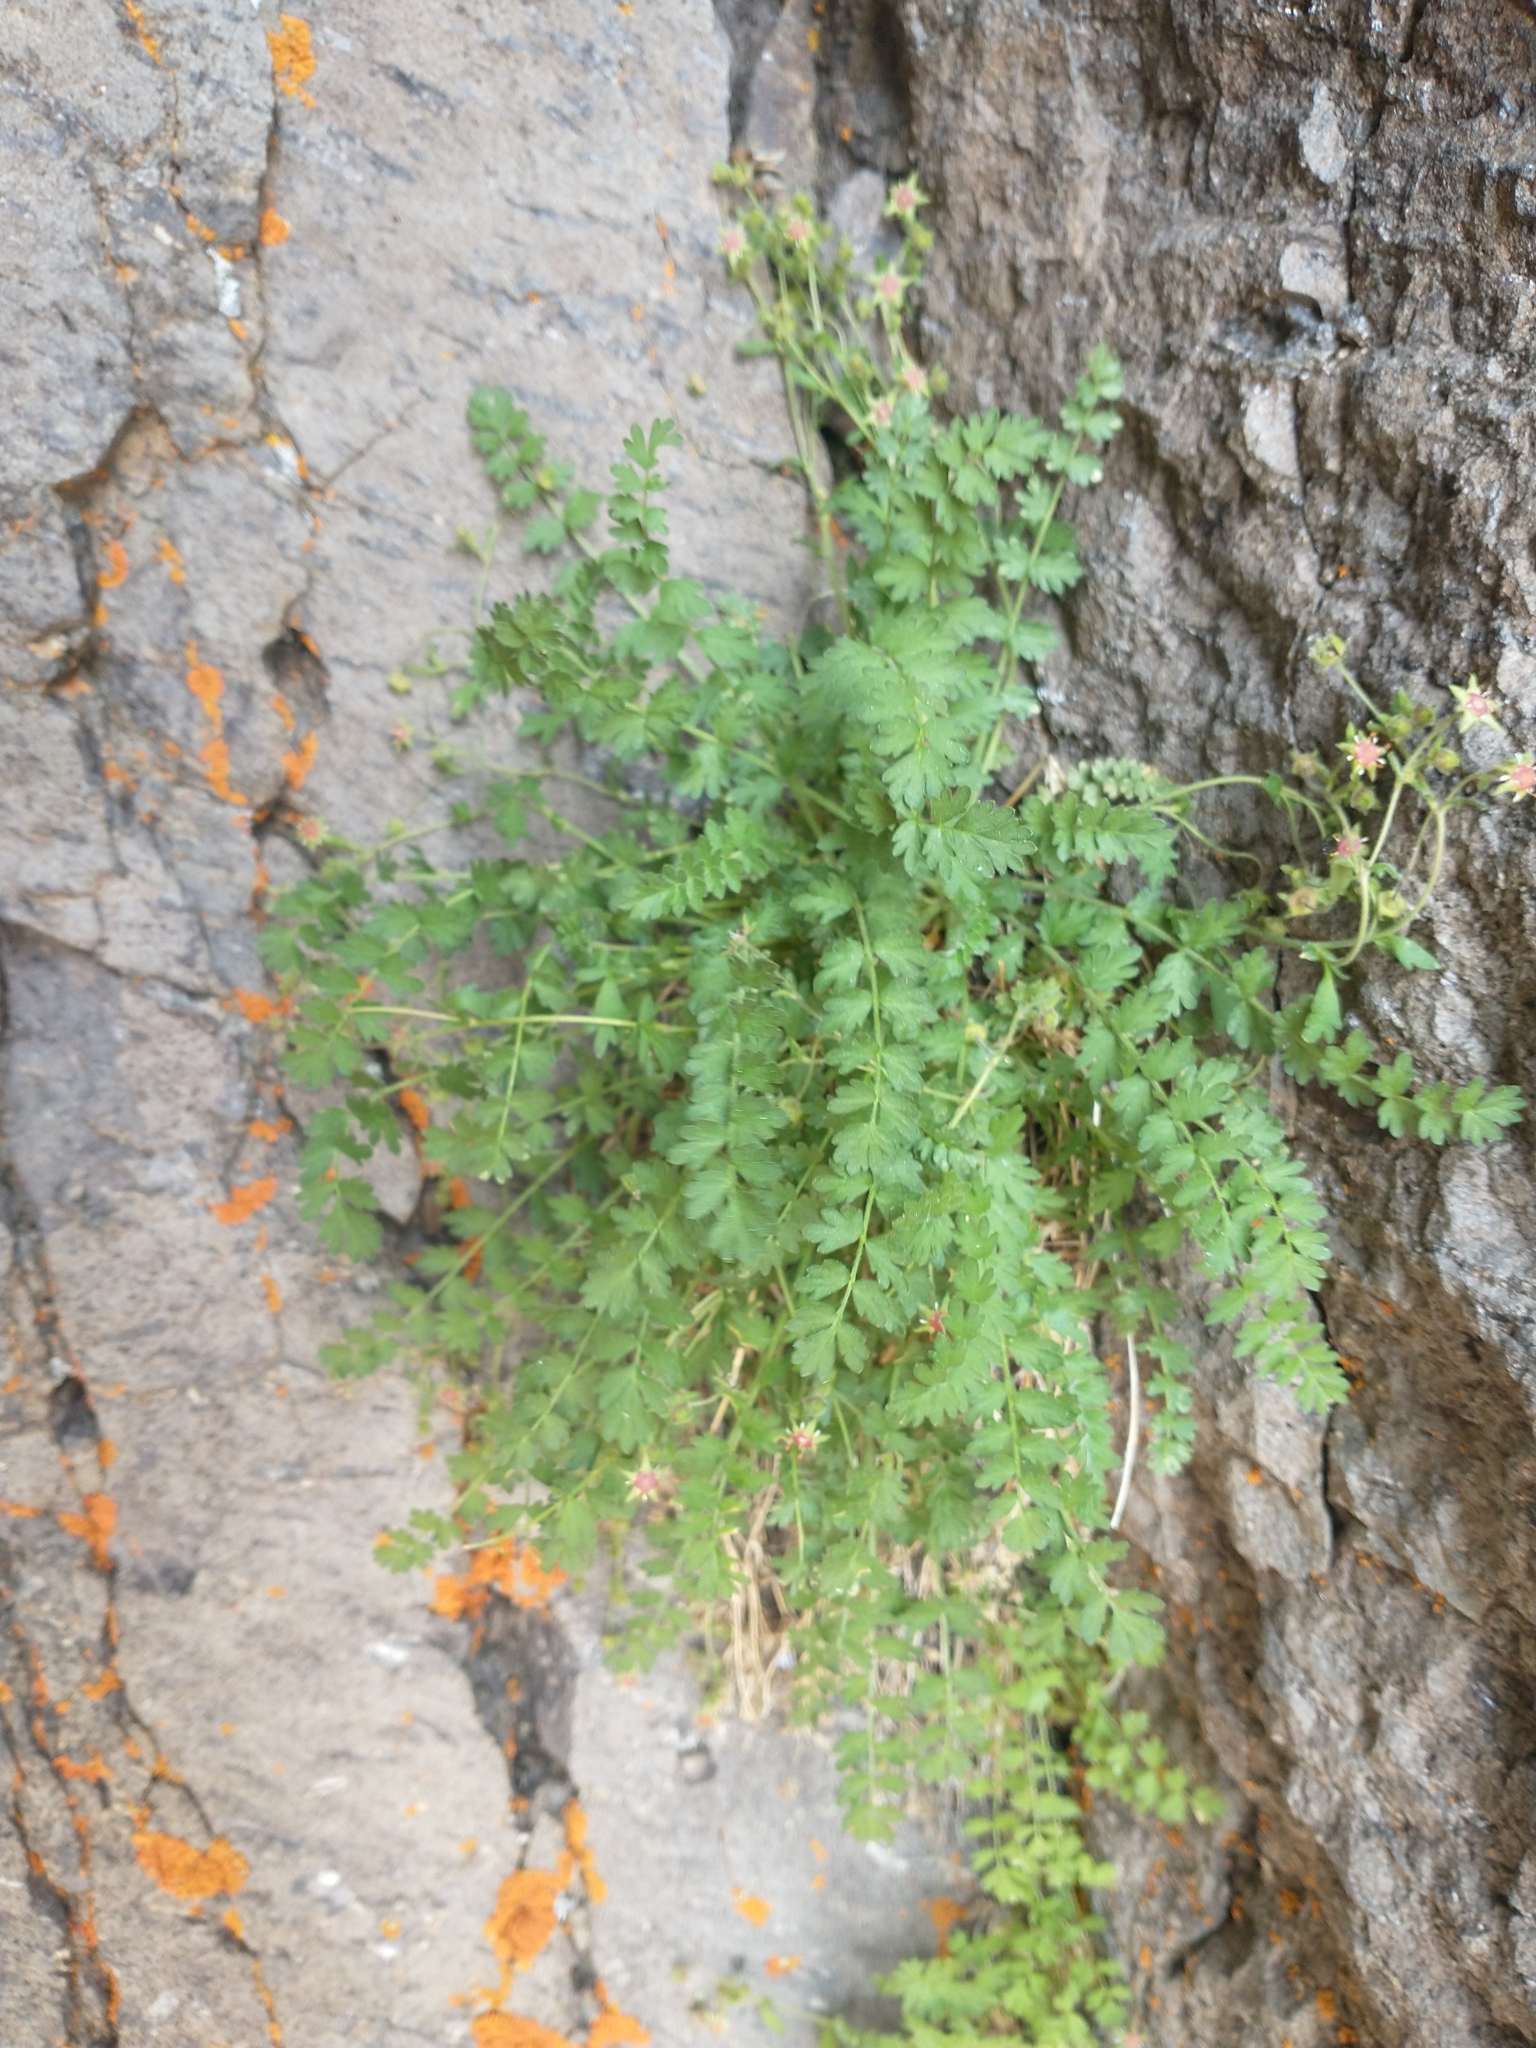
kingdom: Plantae
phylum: Tracheophyta
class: Magnoliopsida
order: Rosales
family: Rosaceae
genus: Potentilla
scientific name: Potentilla baileyi
